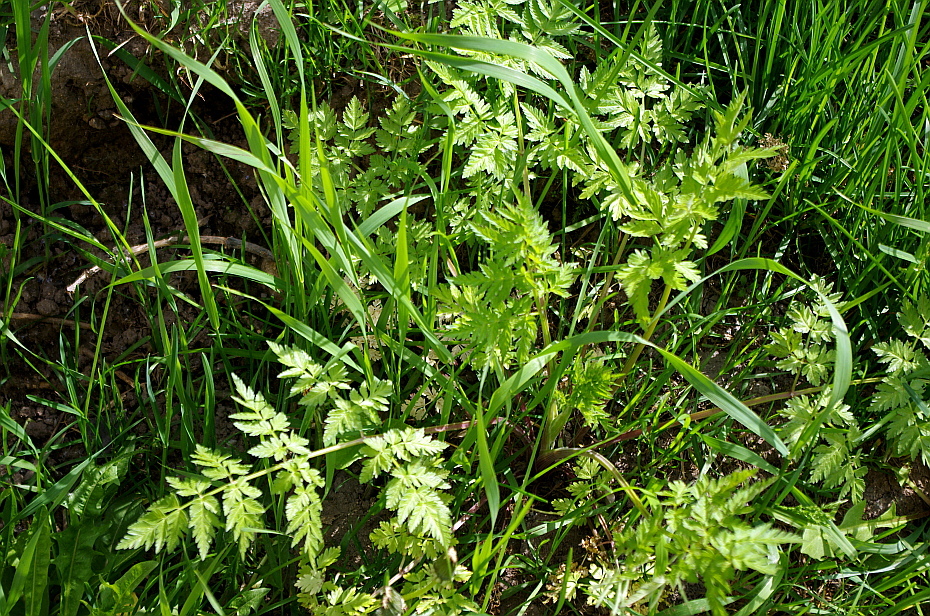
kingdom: Plantae
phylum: Tracheophyta
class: Magnoliopsida
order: Apiales
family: Apiaceae
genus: Anthriscus
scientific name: Anthriscus sylvestris
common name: Cow parsley
